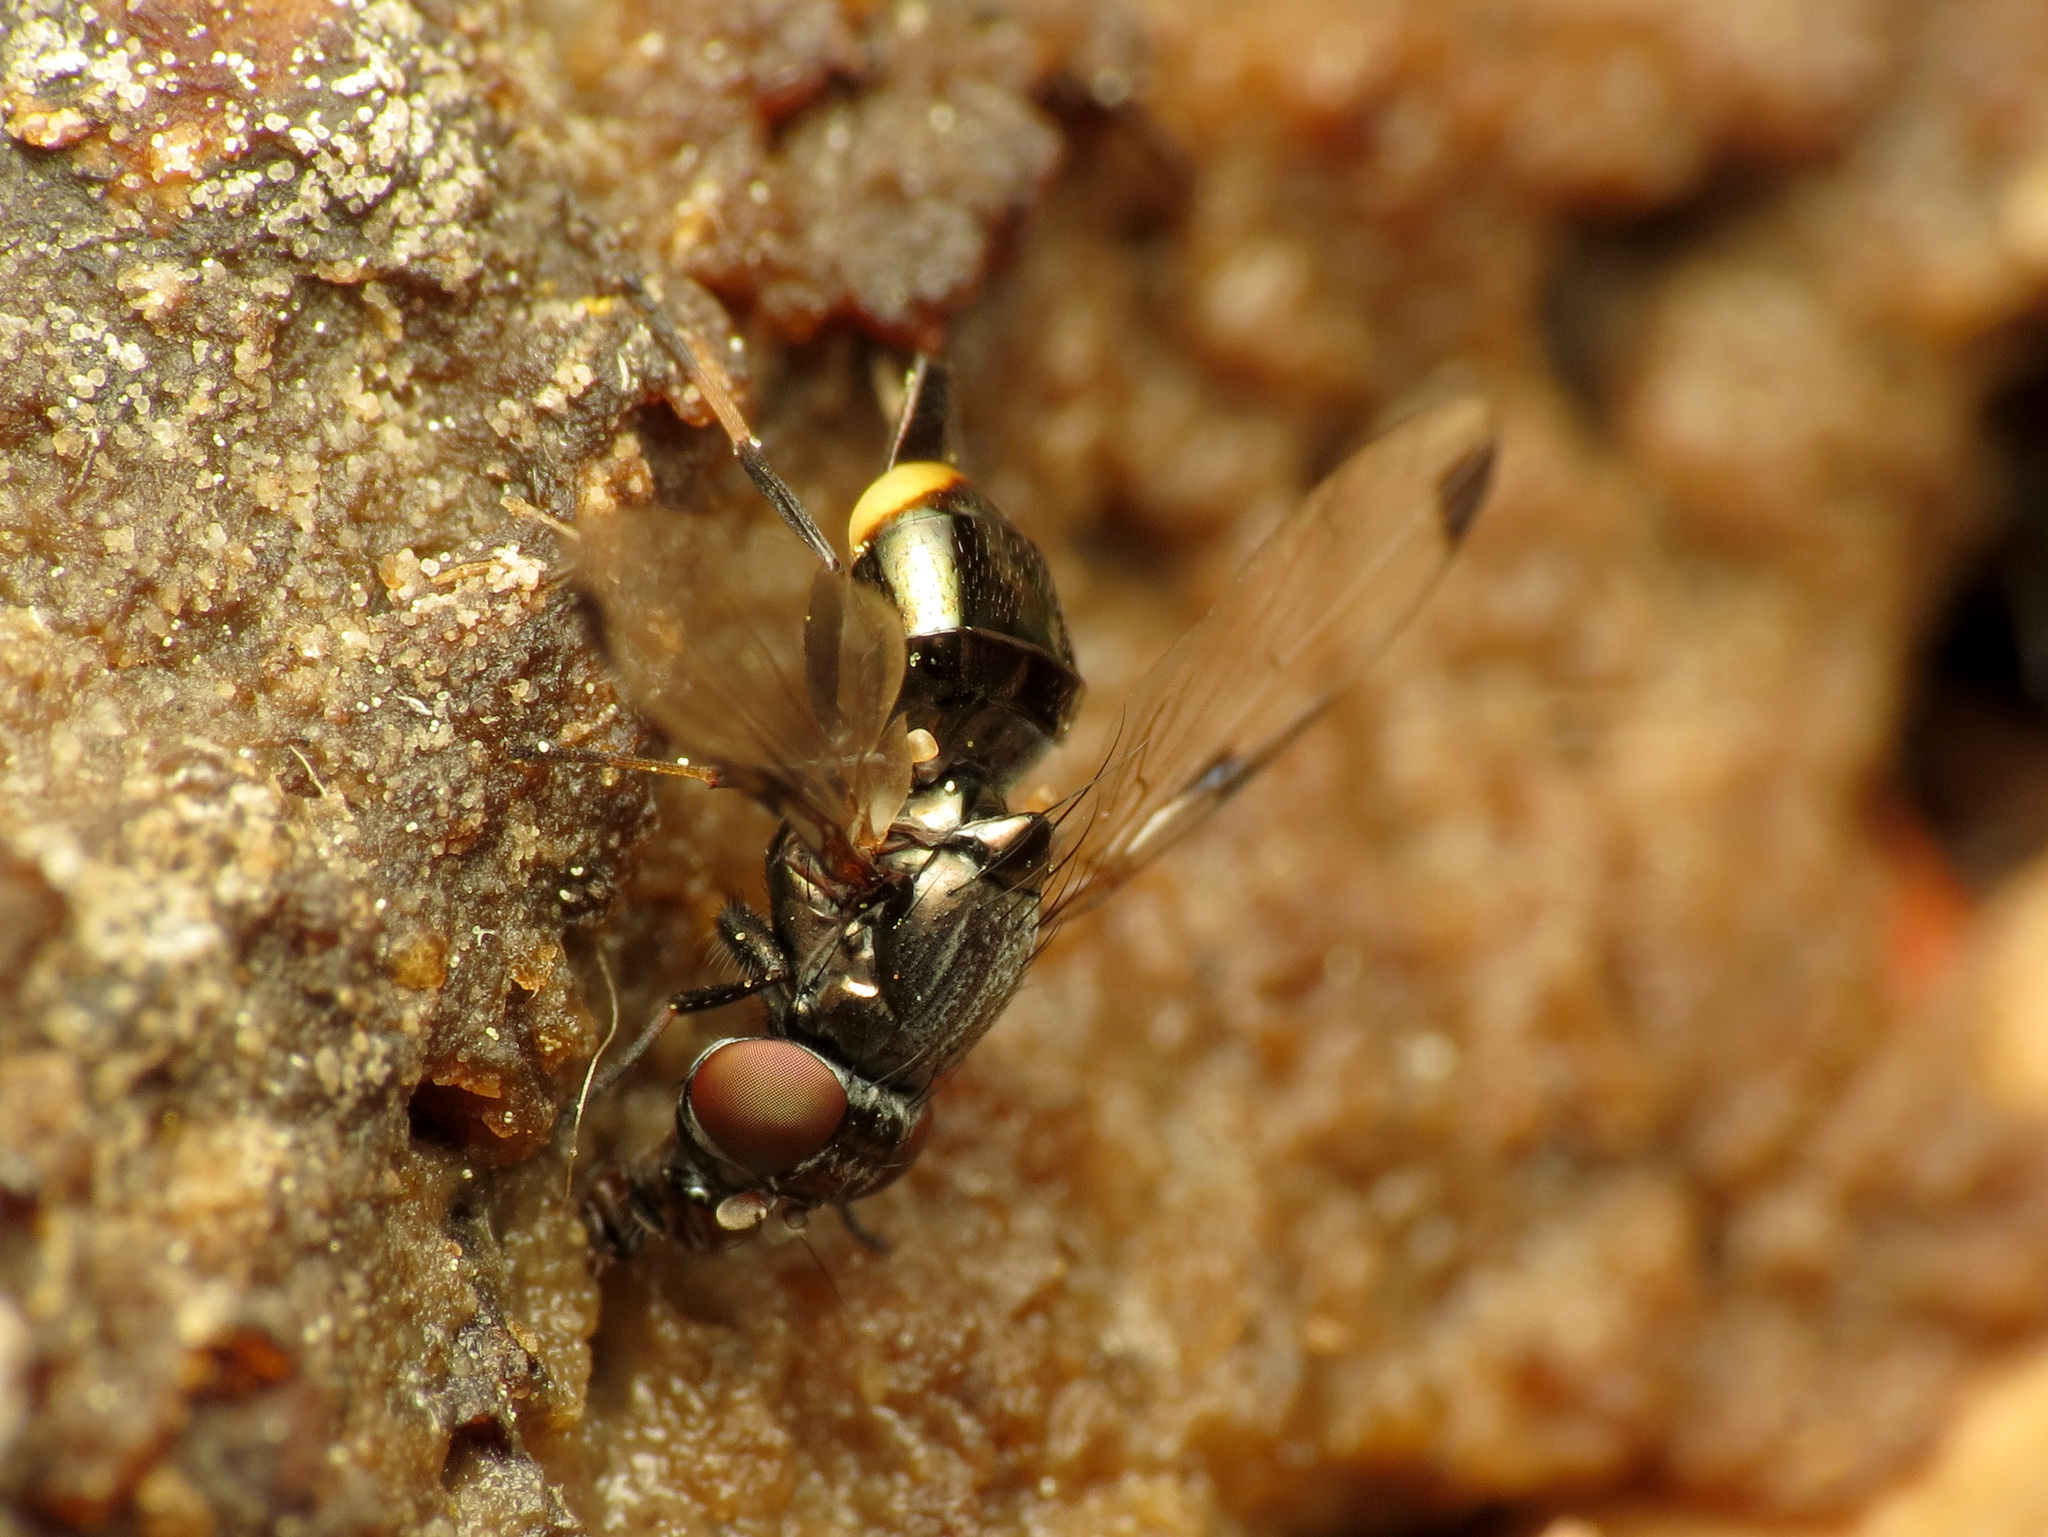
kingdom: Animalia
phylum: Arthropoda
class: Insecta
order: Diptera
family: Ulidiidae
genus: Euxesta
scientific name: Euxesta notata
